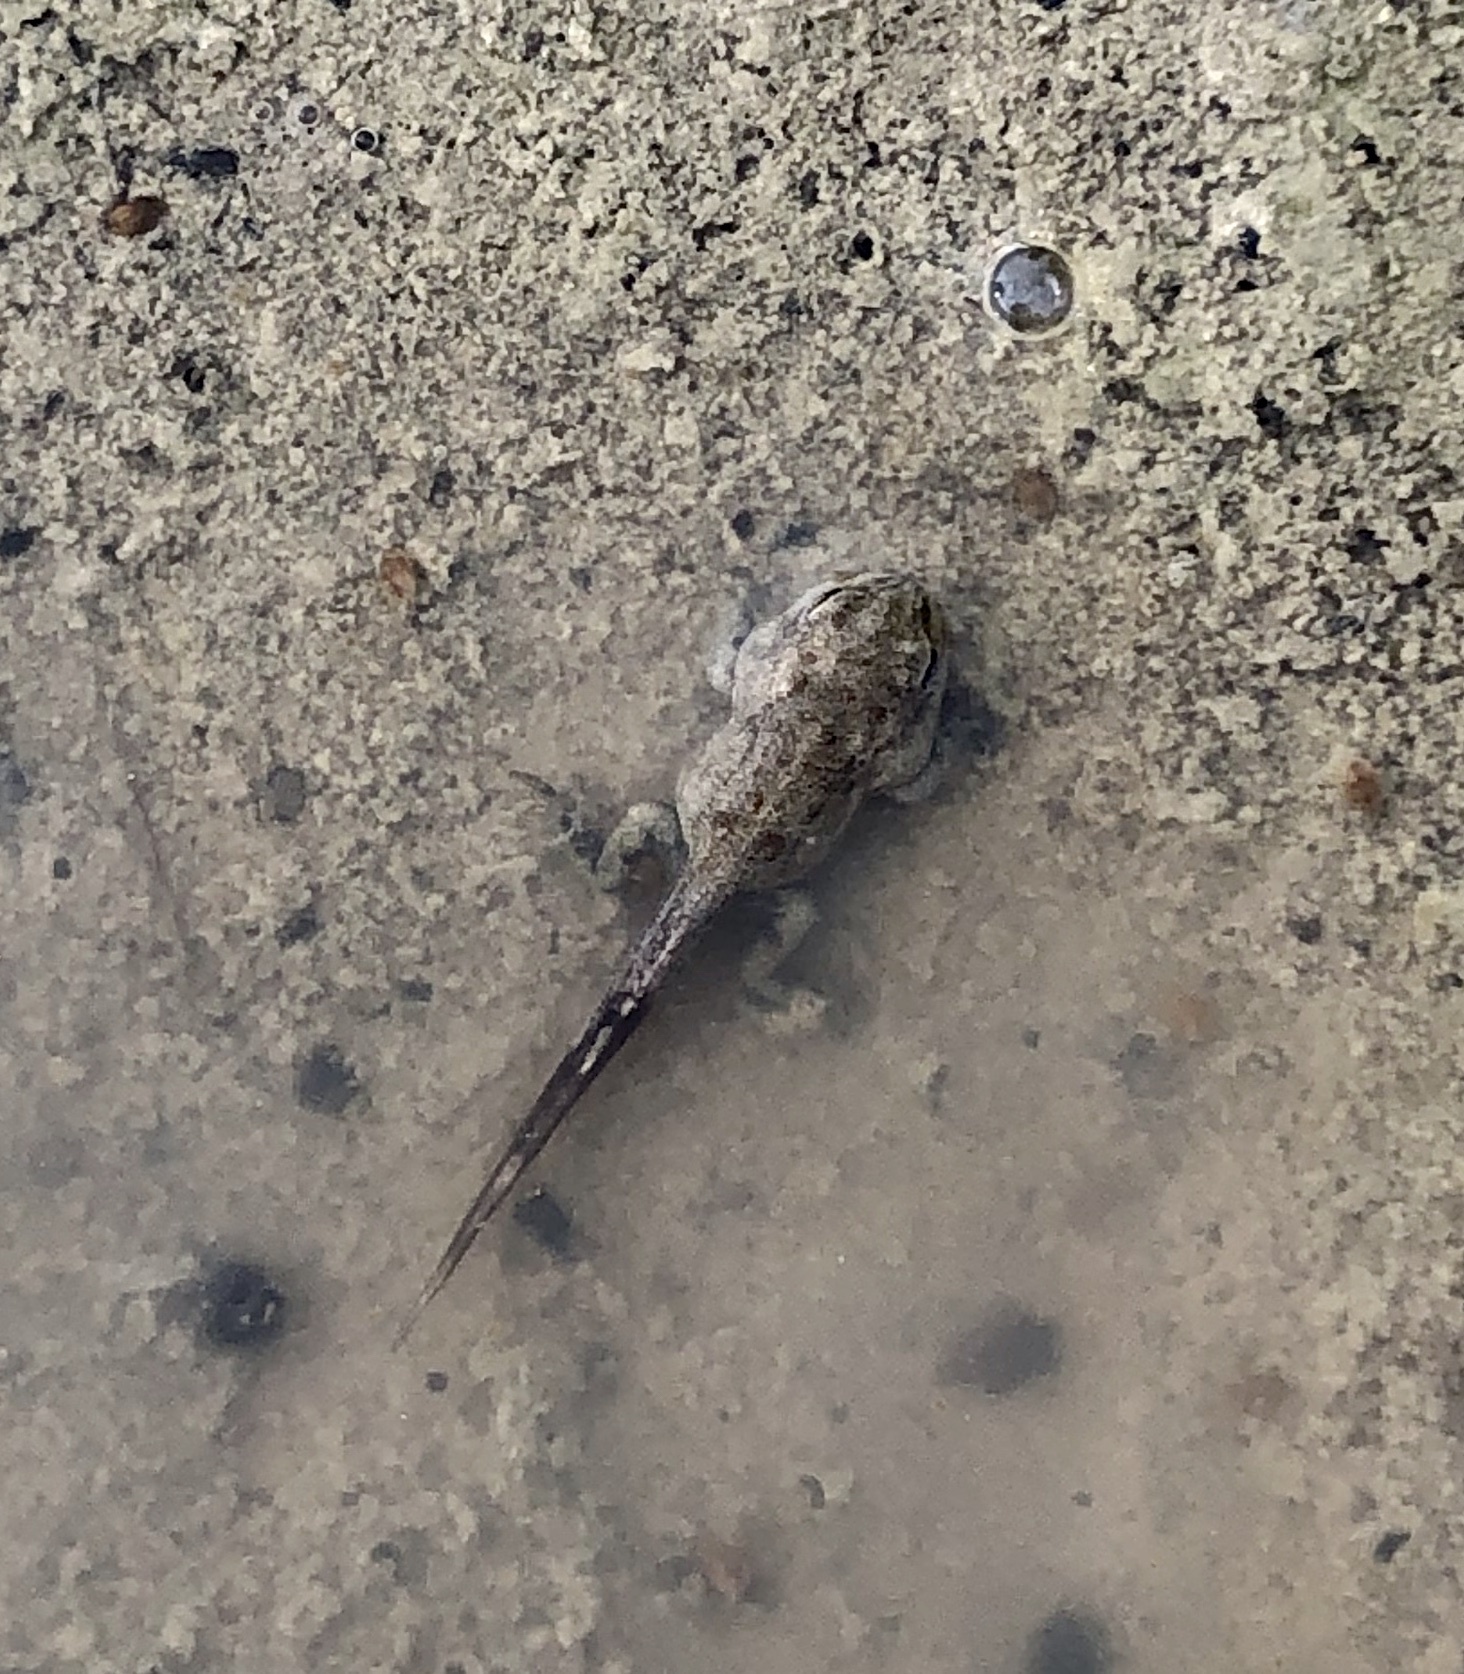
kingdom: Animalia
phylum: Chordata
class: Amphibia
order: Anura
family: Bufonidae
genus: Epidalea
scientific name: Epidalea calamita
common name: Natterjack toad
